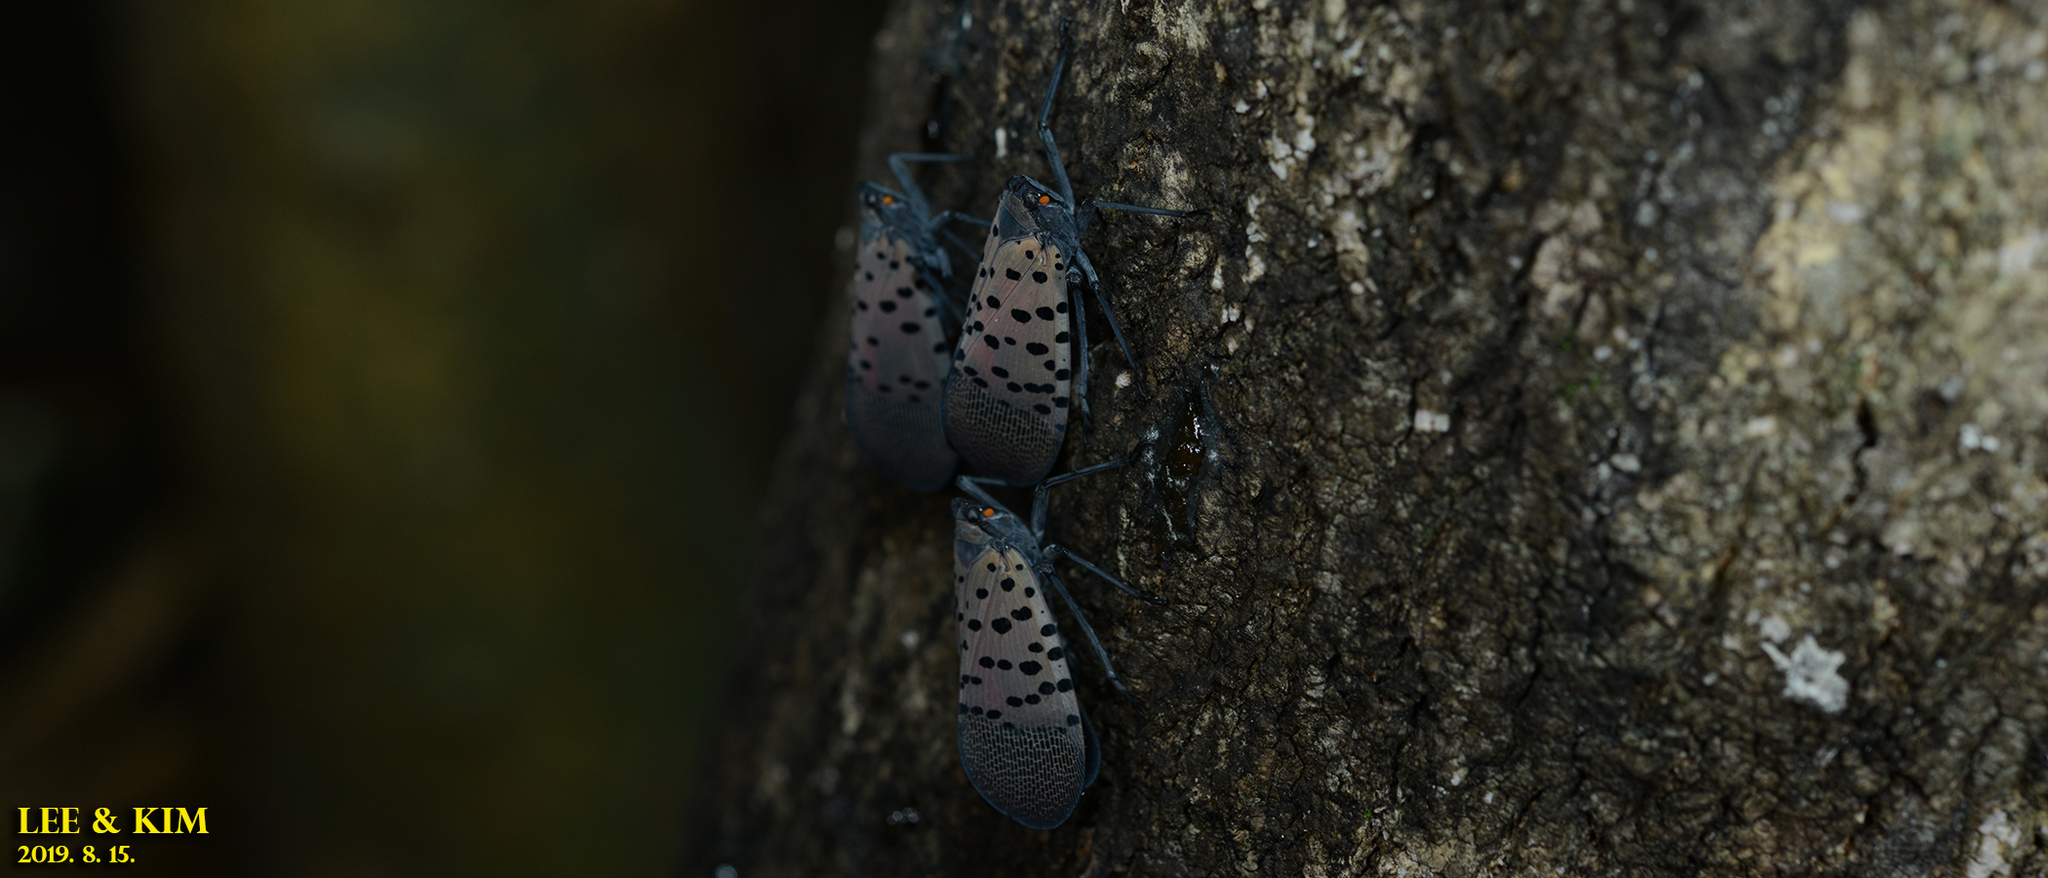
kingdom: Animalia
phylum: Arthropoda
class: Insecta
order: Hemiptera
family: Fulgoridae
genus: Lycorma
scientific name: Lycorma delicatula
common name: Spotted lanternfly
